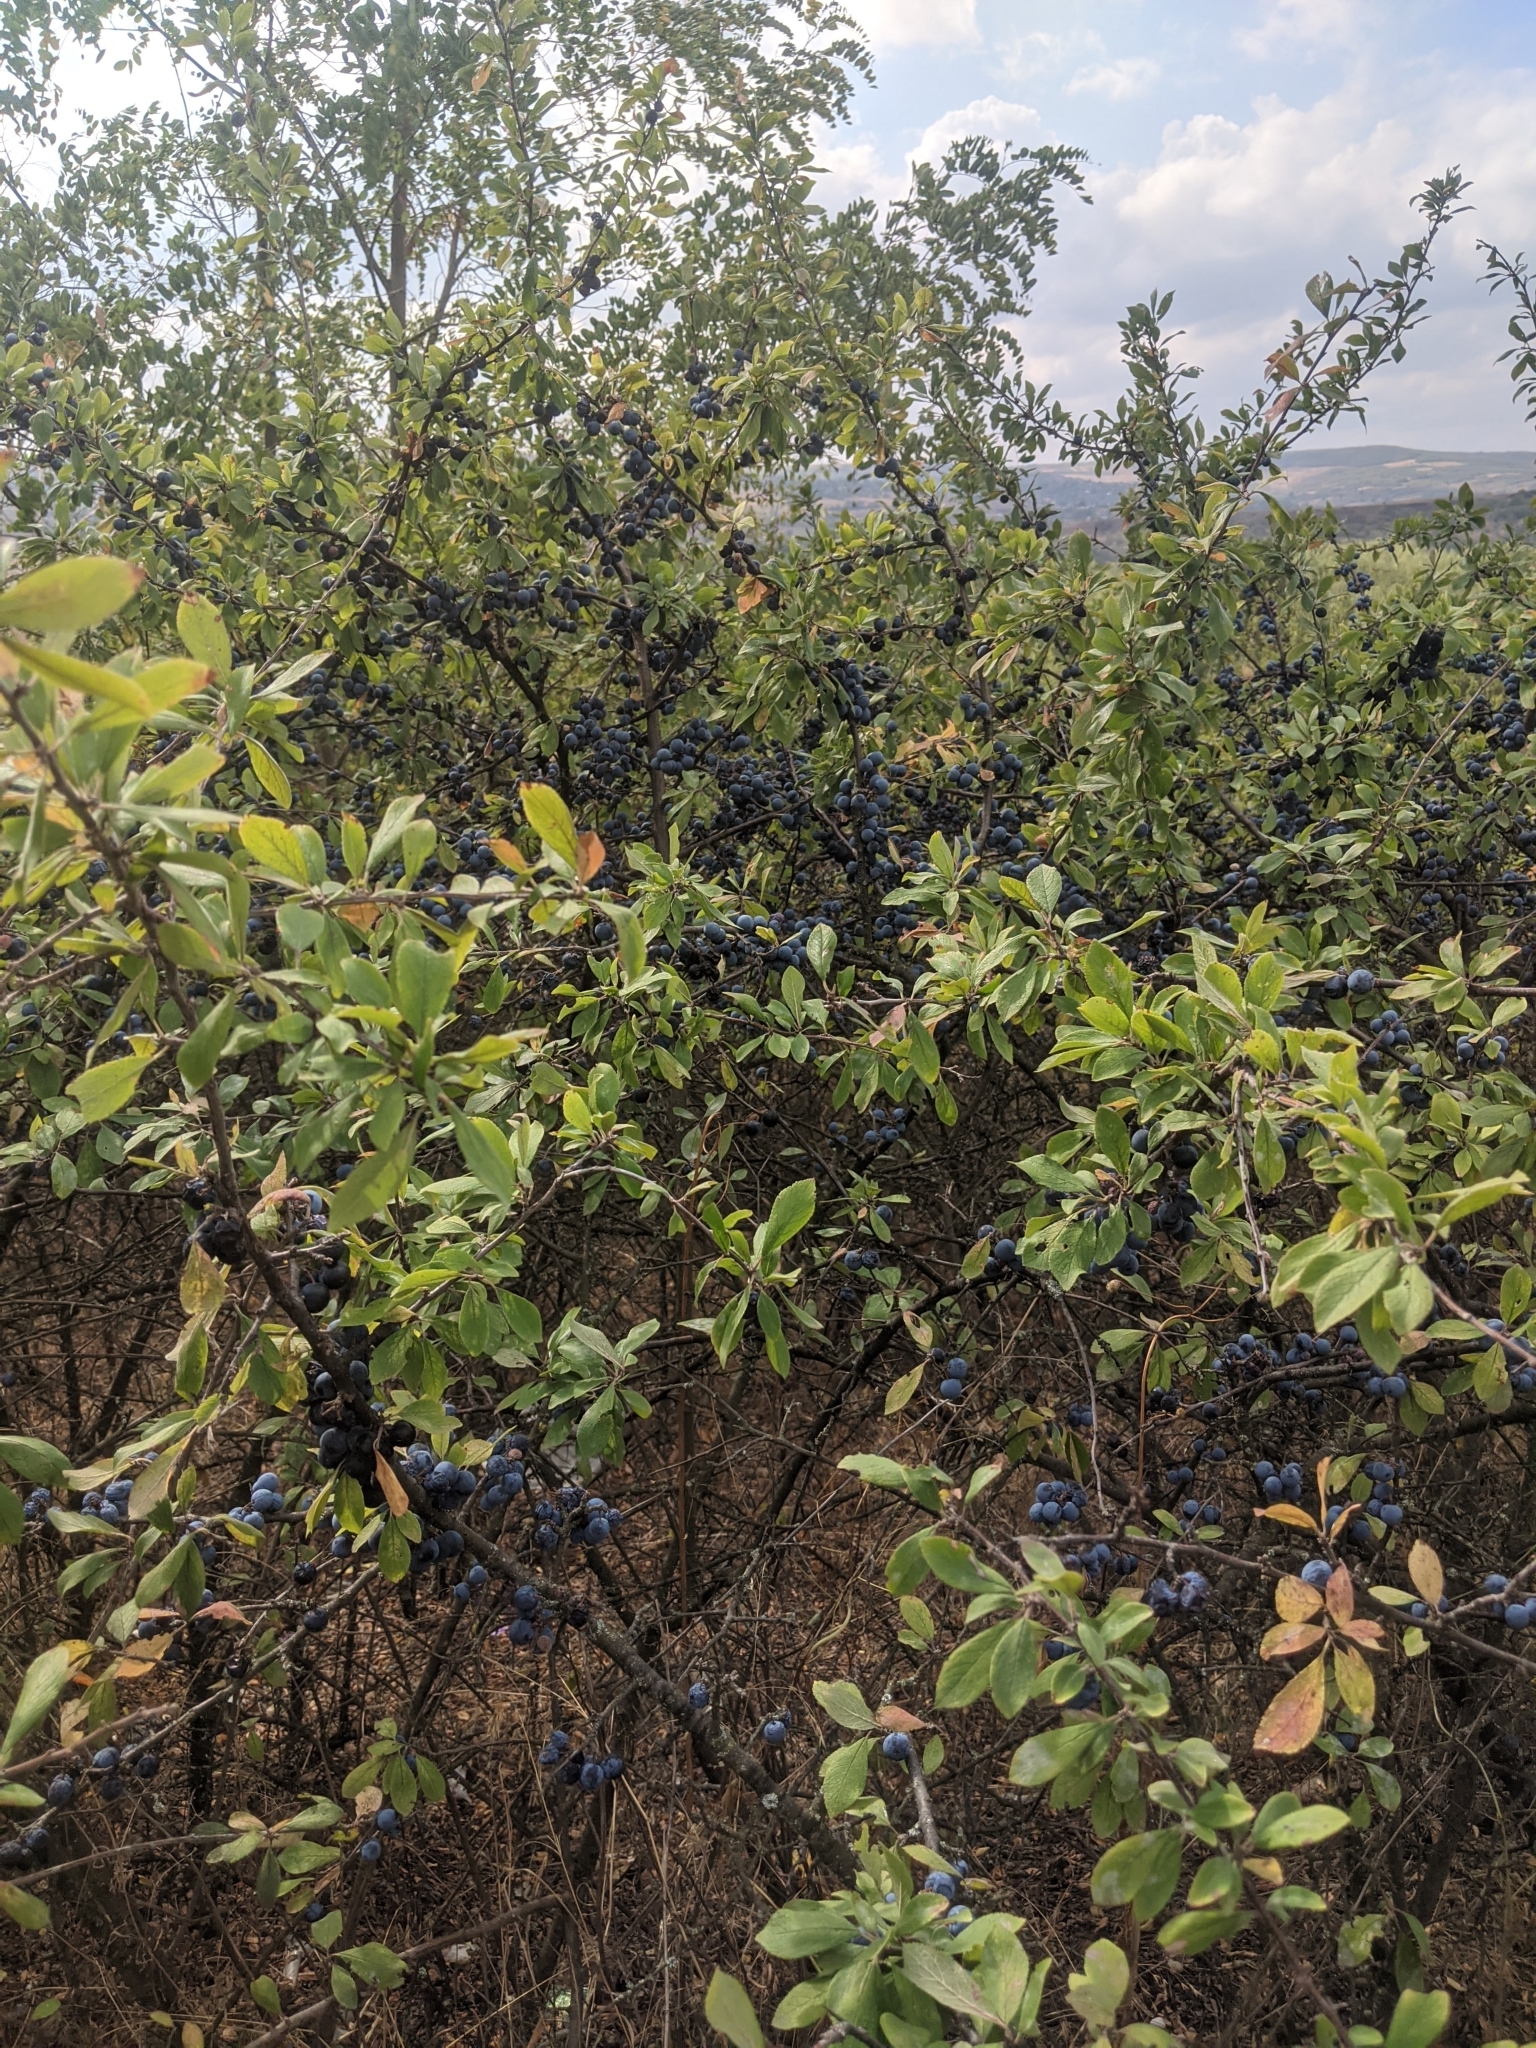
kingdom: Plantae
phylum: Tracheophyta
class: Magnoliopsida
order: Rosales
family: Rosaceae
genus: Prunus
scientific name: Prunus spinosa
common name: Blackthorn
